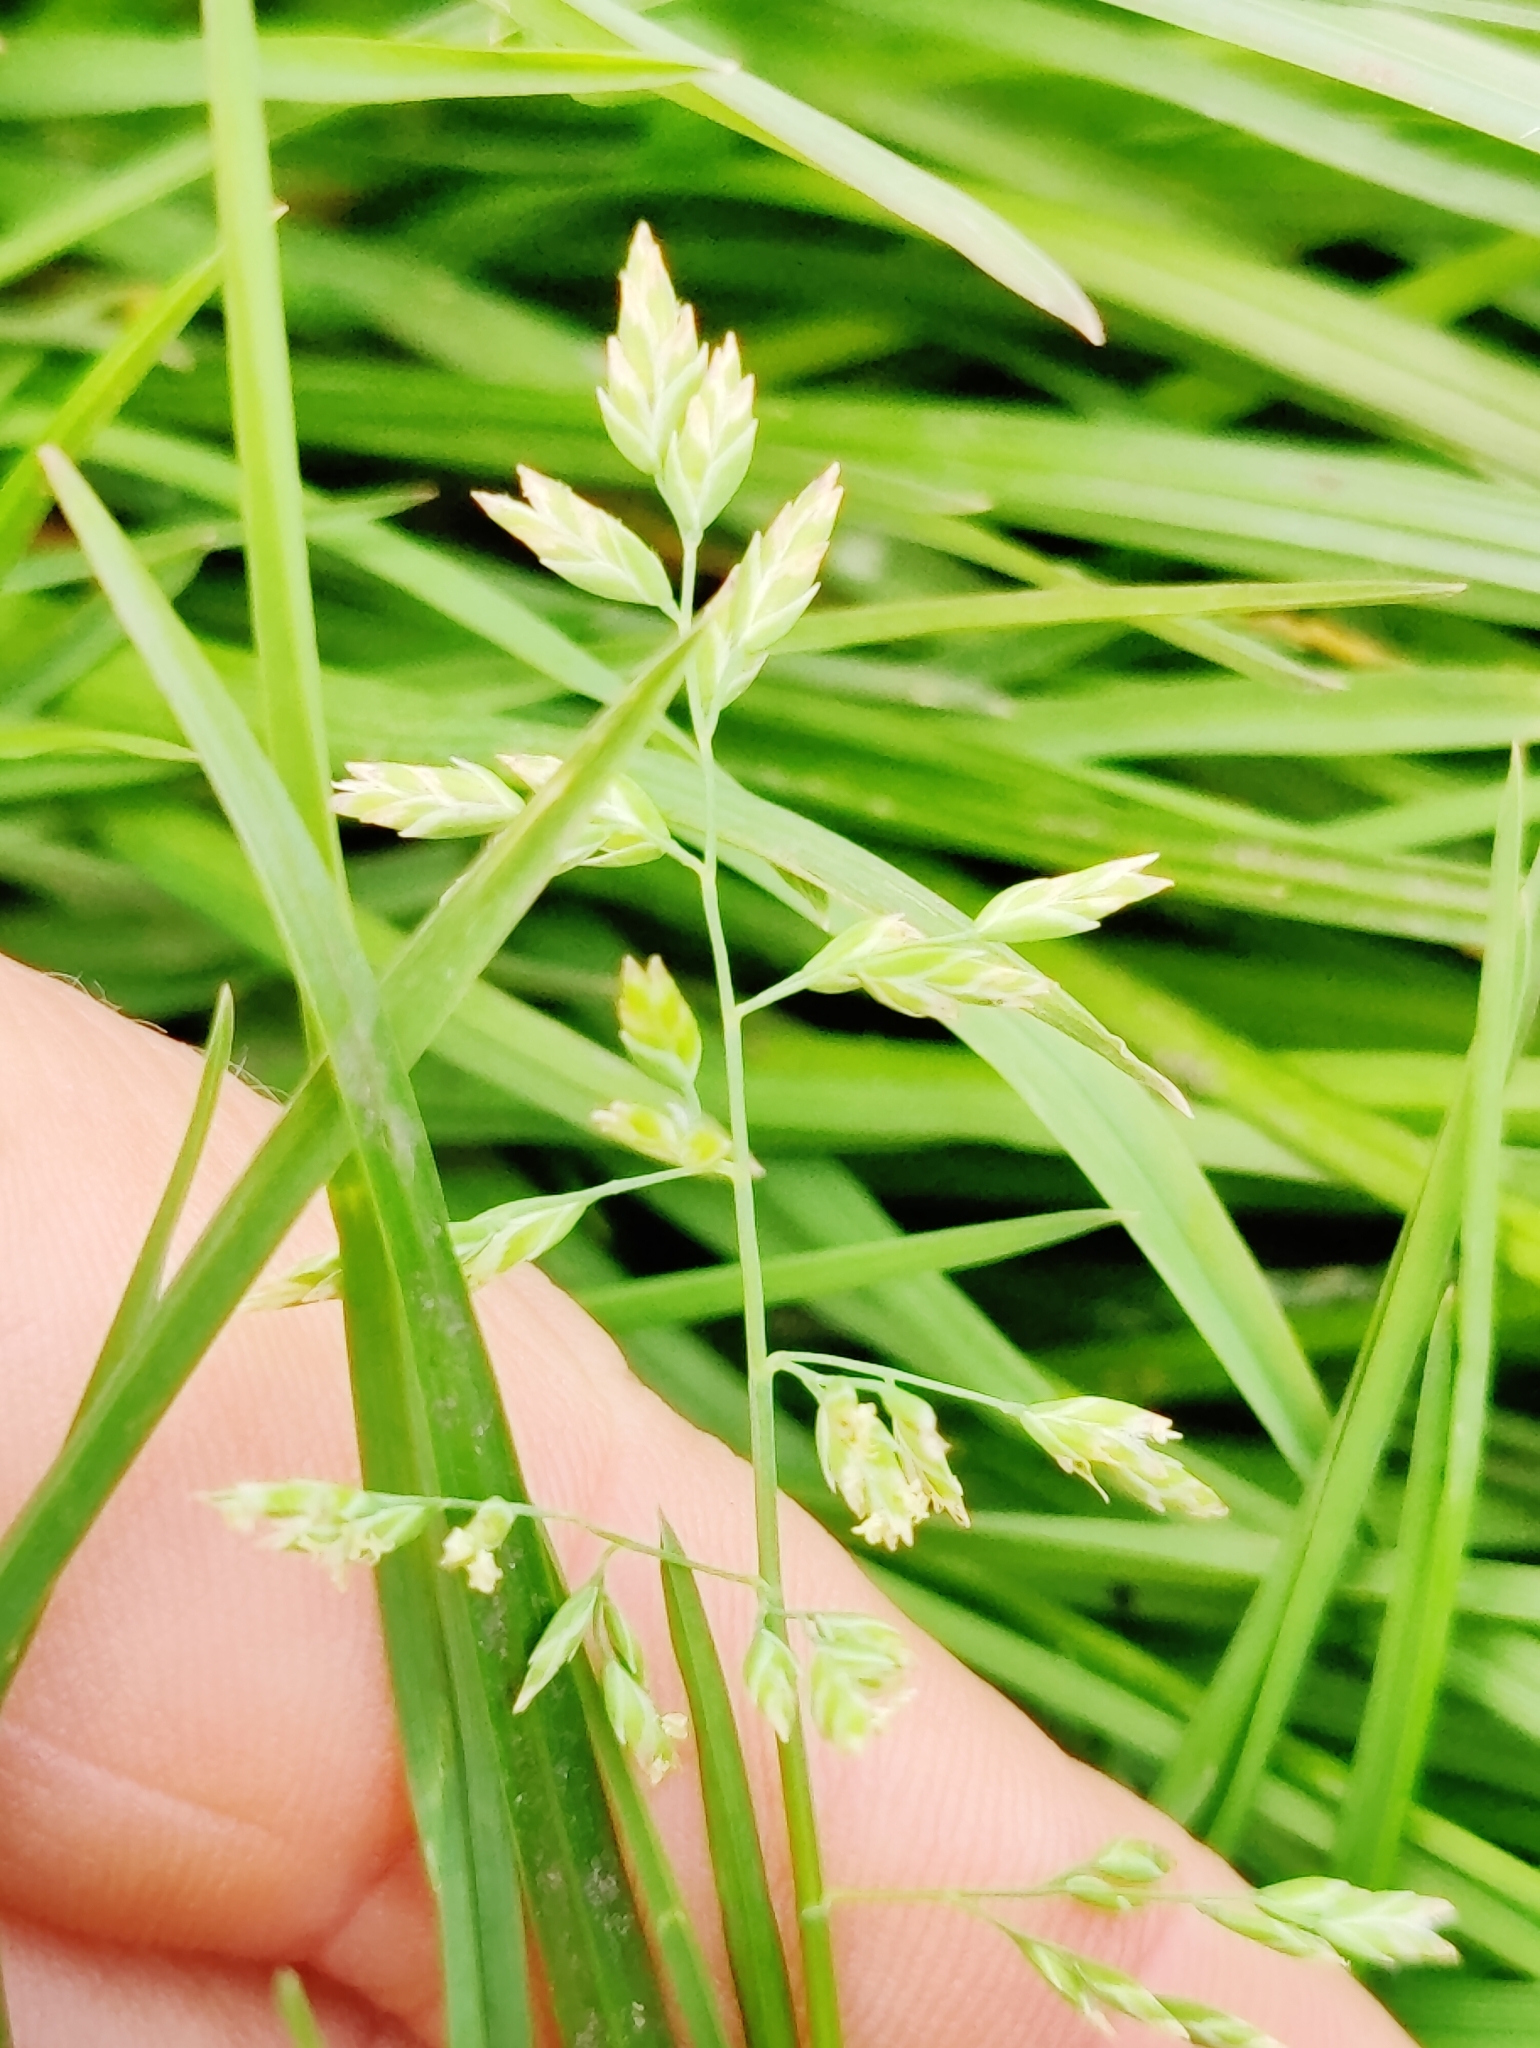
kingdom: Plantae
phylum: Tracheophyta
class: Liliopsida
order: Poales
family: Poaceae
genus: Poa
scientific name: Poa annua
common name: Annual bluegrass
